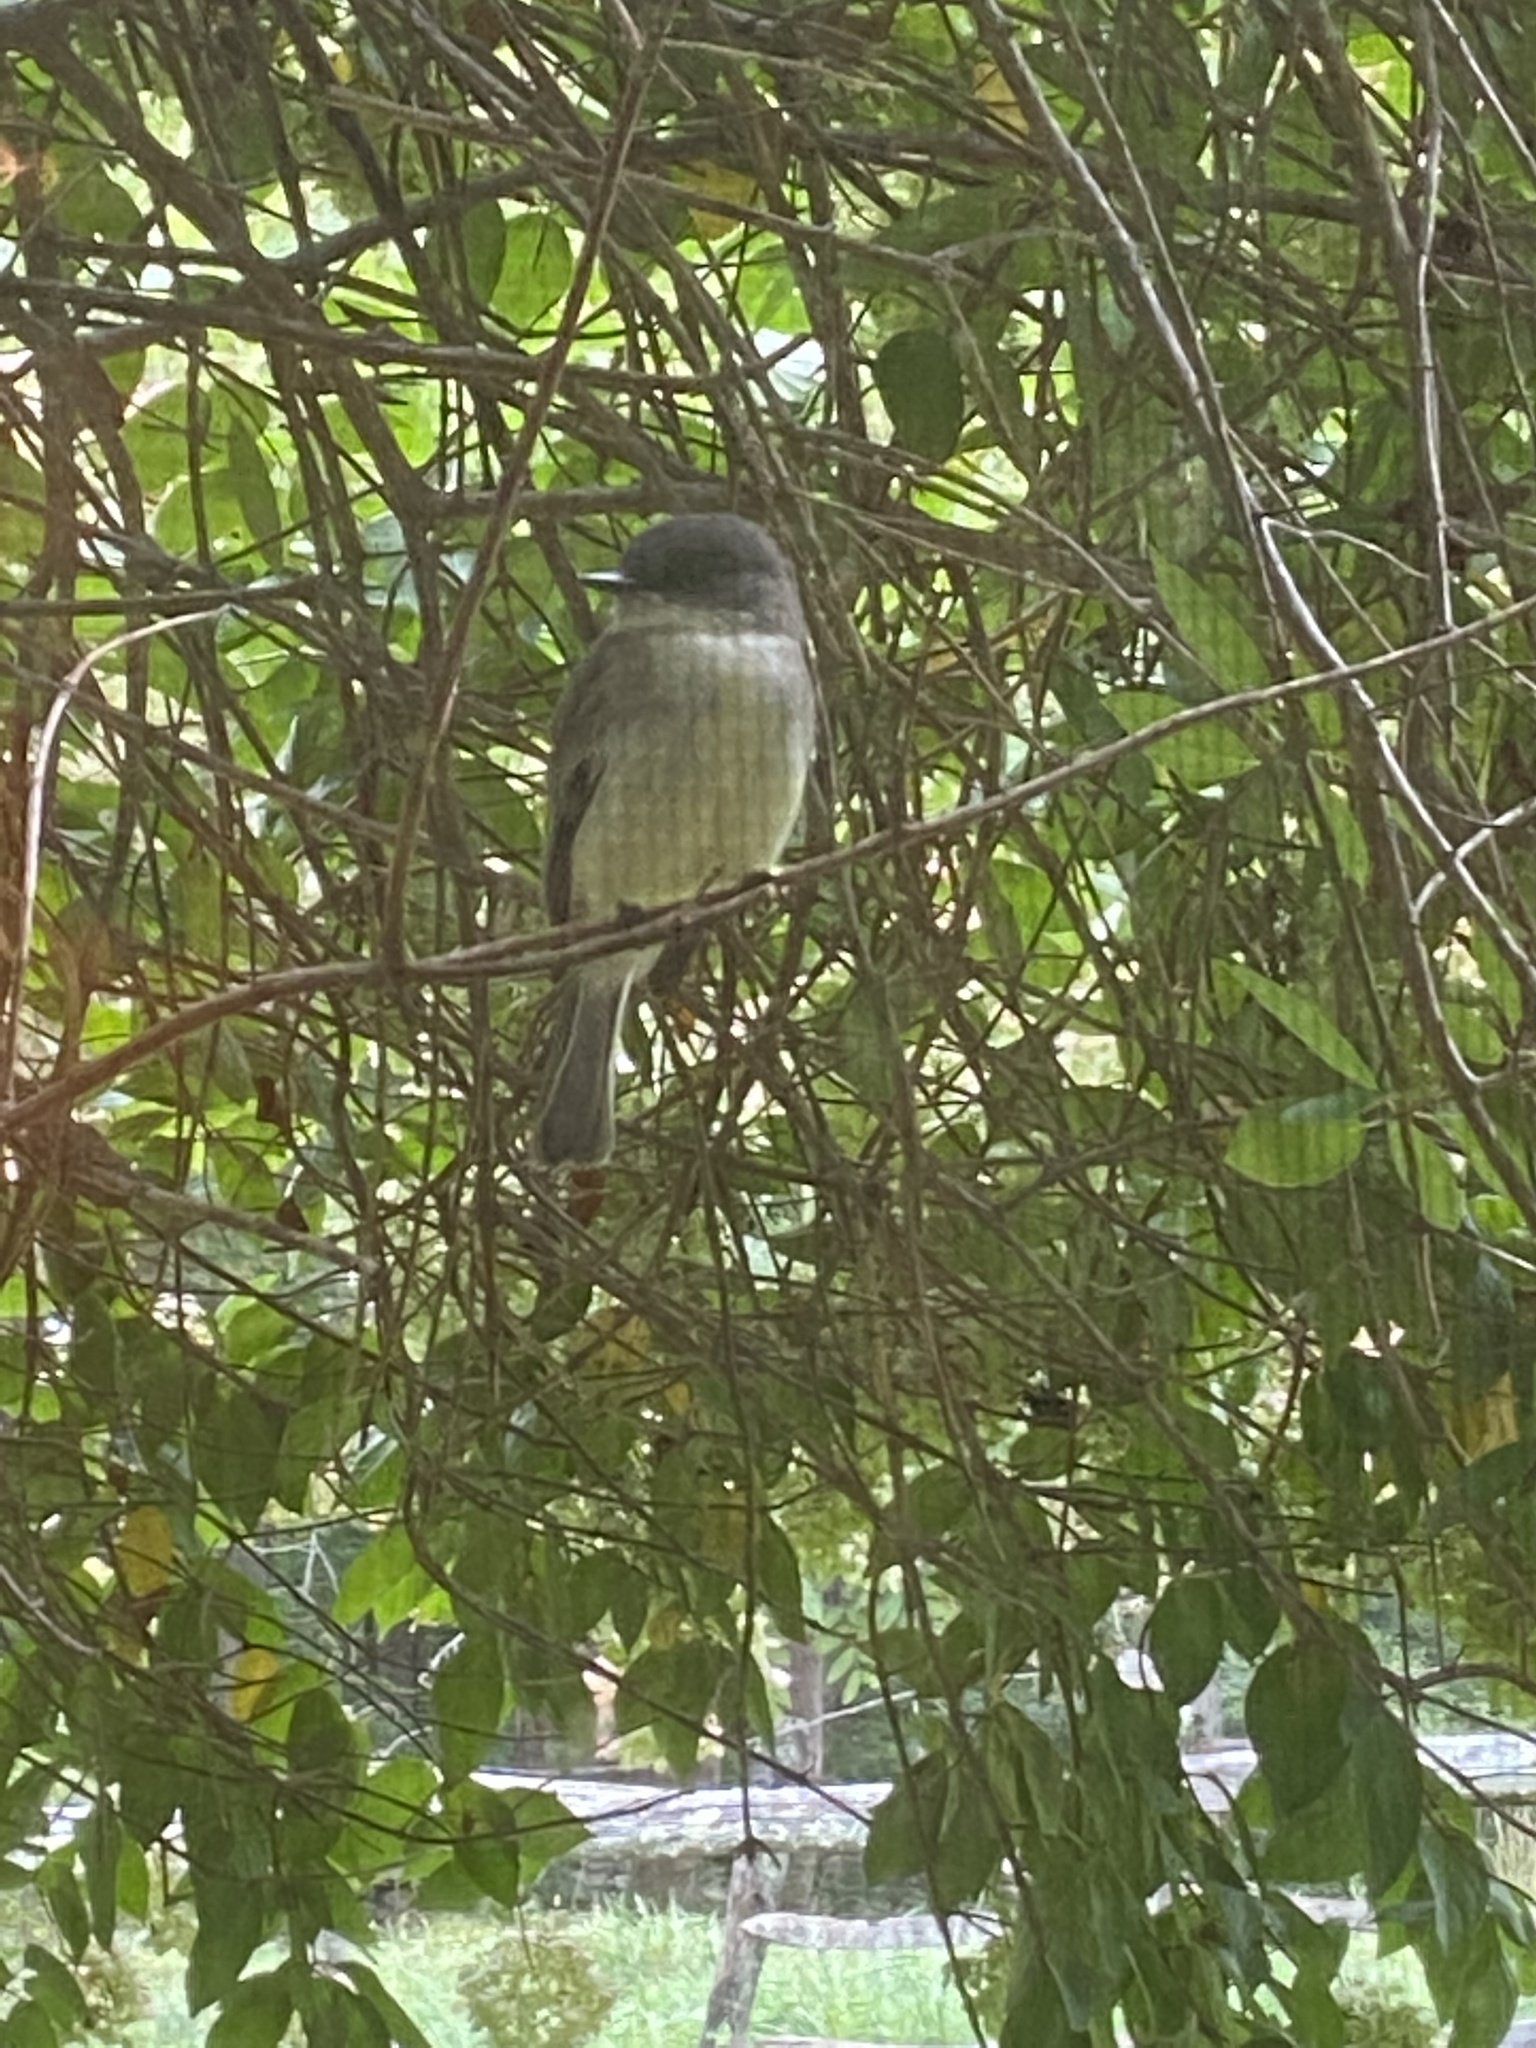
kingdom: Animalia
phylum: Chordata
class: Aves
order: Passeriformes
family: Tyrannidae
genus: Sayornis
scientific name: Sayornis phoebe
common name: Eastern phoebe
